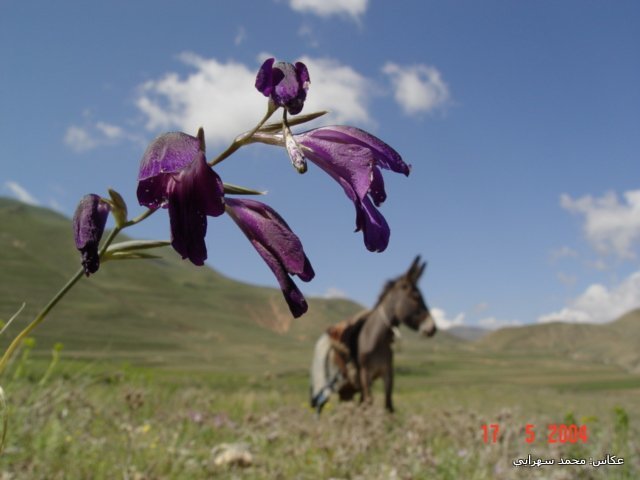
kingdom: Plantae
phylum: Tracheophyta
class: Liliopsida
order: Asparagales
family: Iridaceae
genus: Gladiolus
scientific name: Gladiolus atroviolaceus
